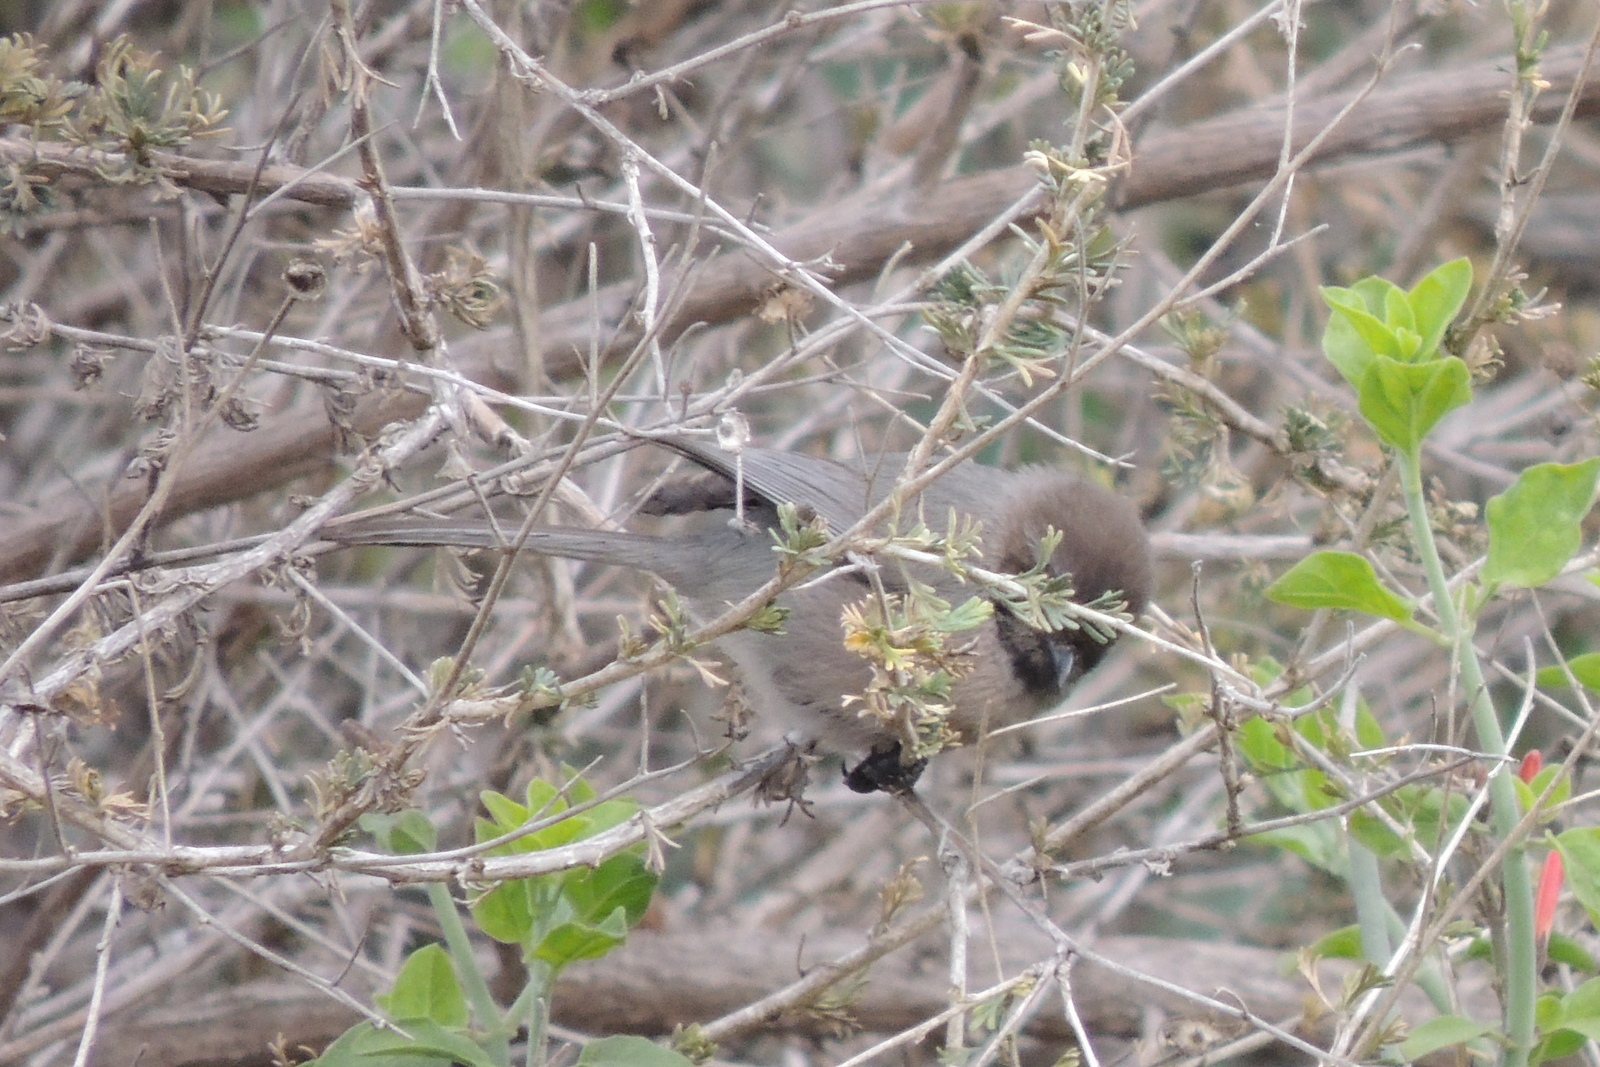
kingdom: Animalia
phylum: Chordata
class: Aves
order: Passeriformes
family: Aegithalidae
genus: Psaltriparus
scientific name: Psaltriparus minimus
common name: American bushtit
